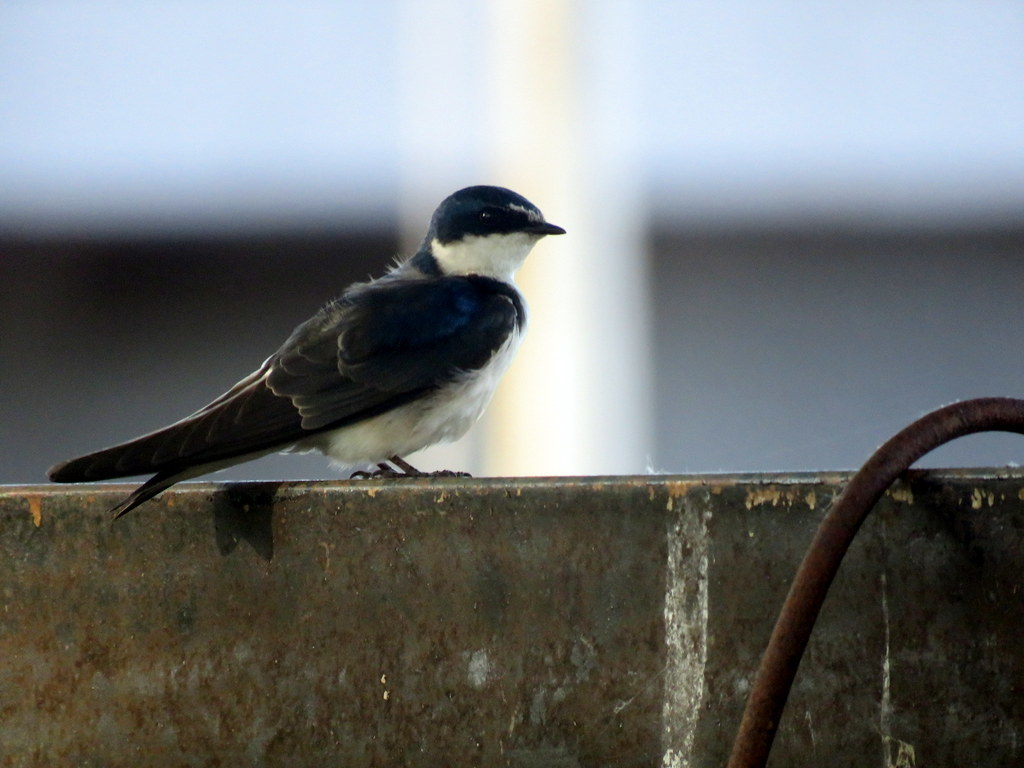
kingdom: Animalia
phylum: Chordata
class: Aves
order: Passeriformes
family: Hirundinidae
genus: Tachycineta
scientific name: Tachycineta leucorrhoa
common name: White-rumped swallow
